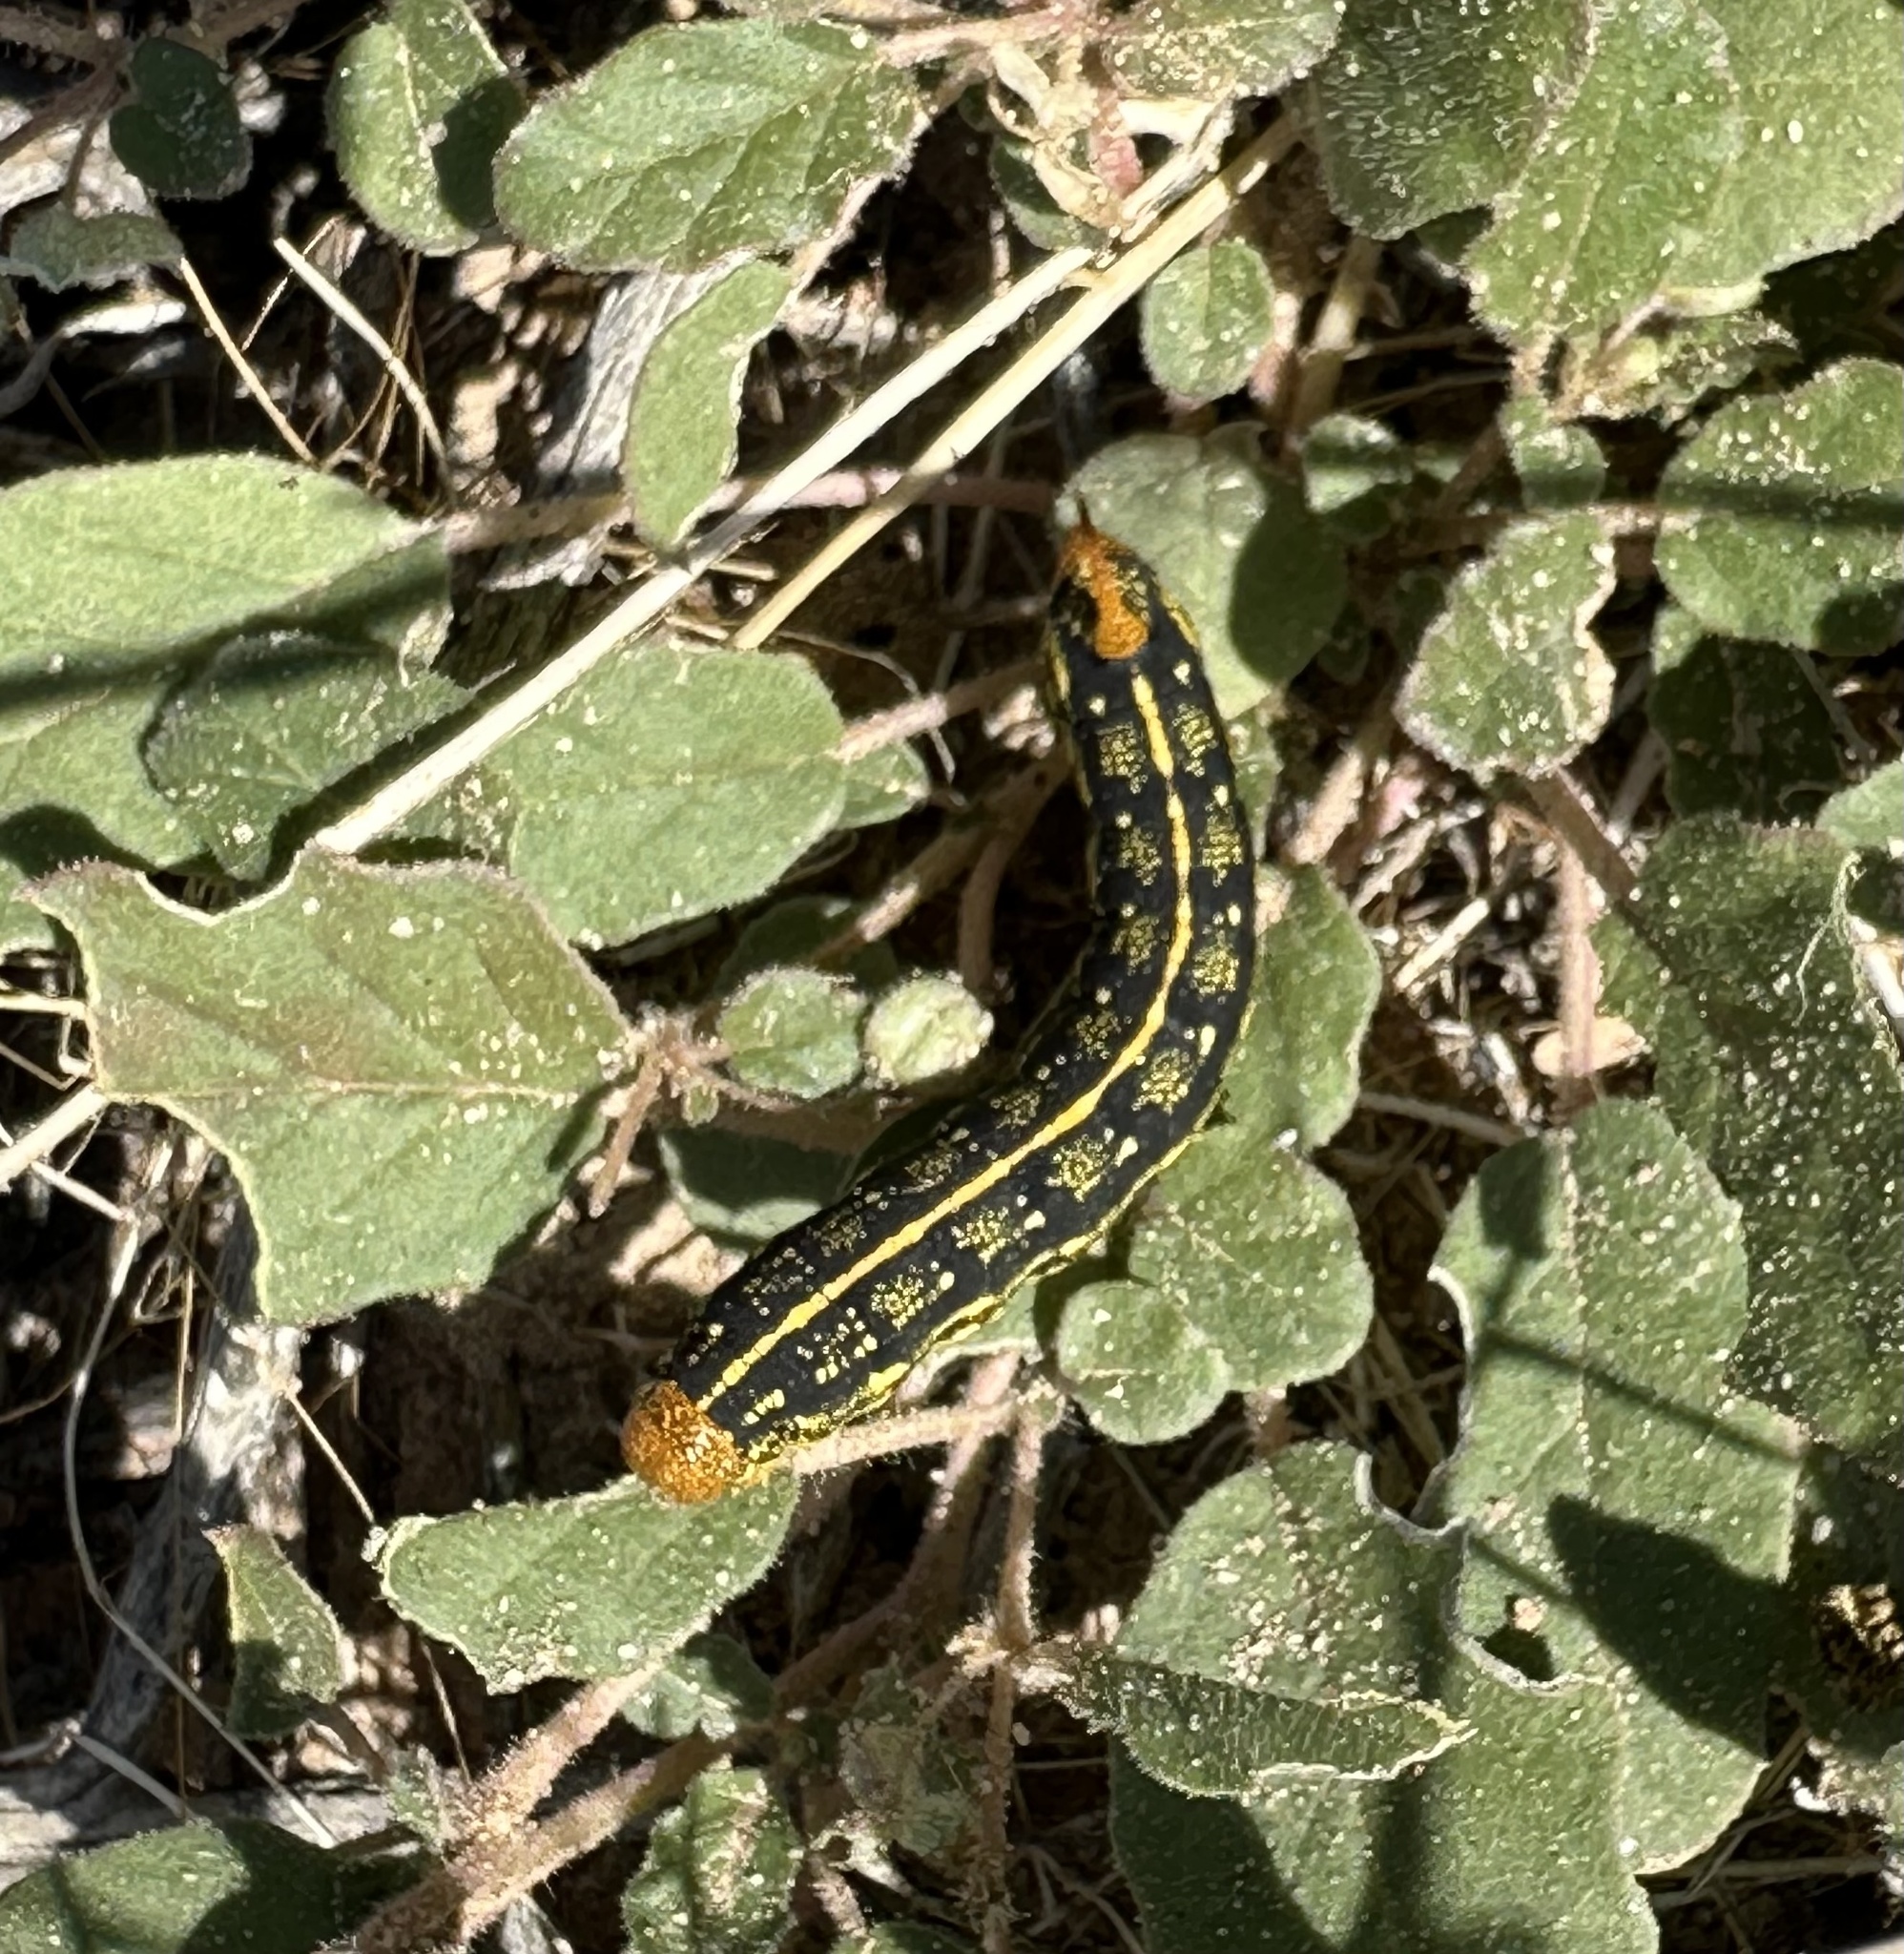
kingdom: Animalia
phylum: Arthropoda
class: Insecta
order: Lepidoptera
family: Sphingidae
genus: Hyles
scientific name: Hyles lineata
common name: White-lined sphinx
